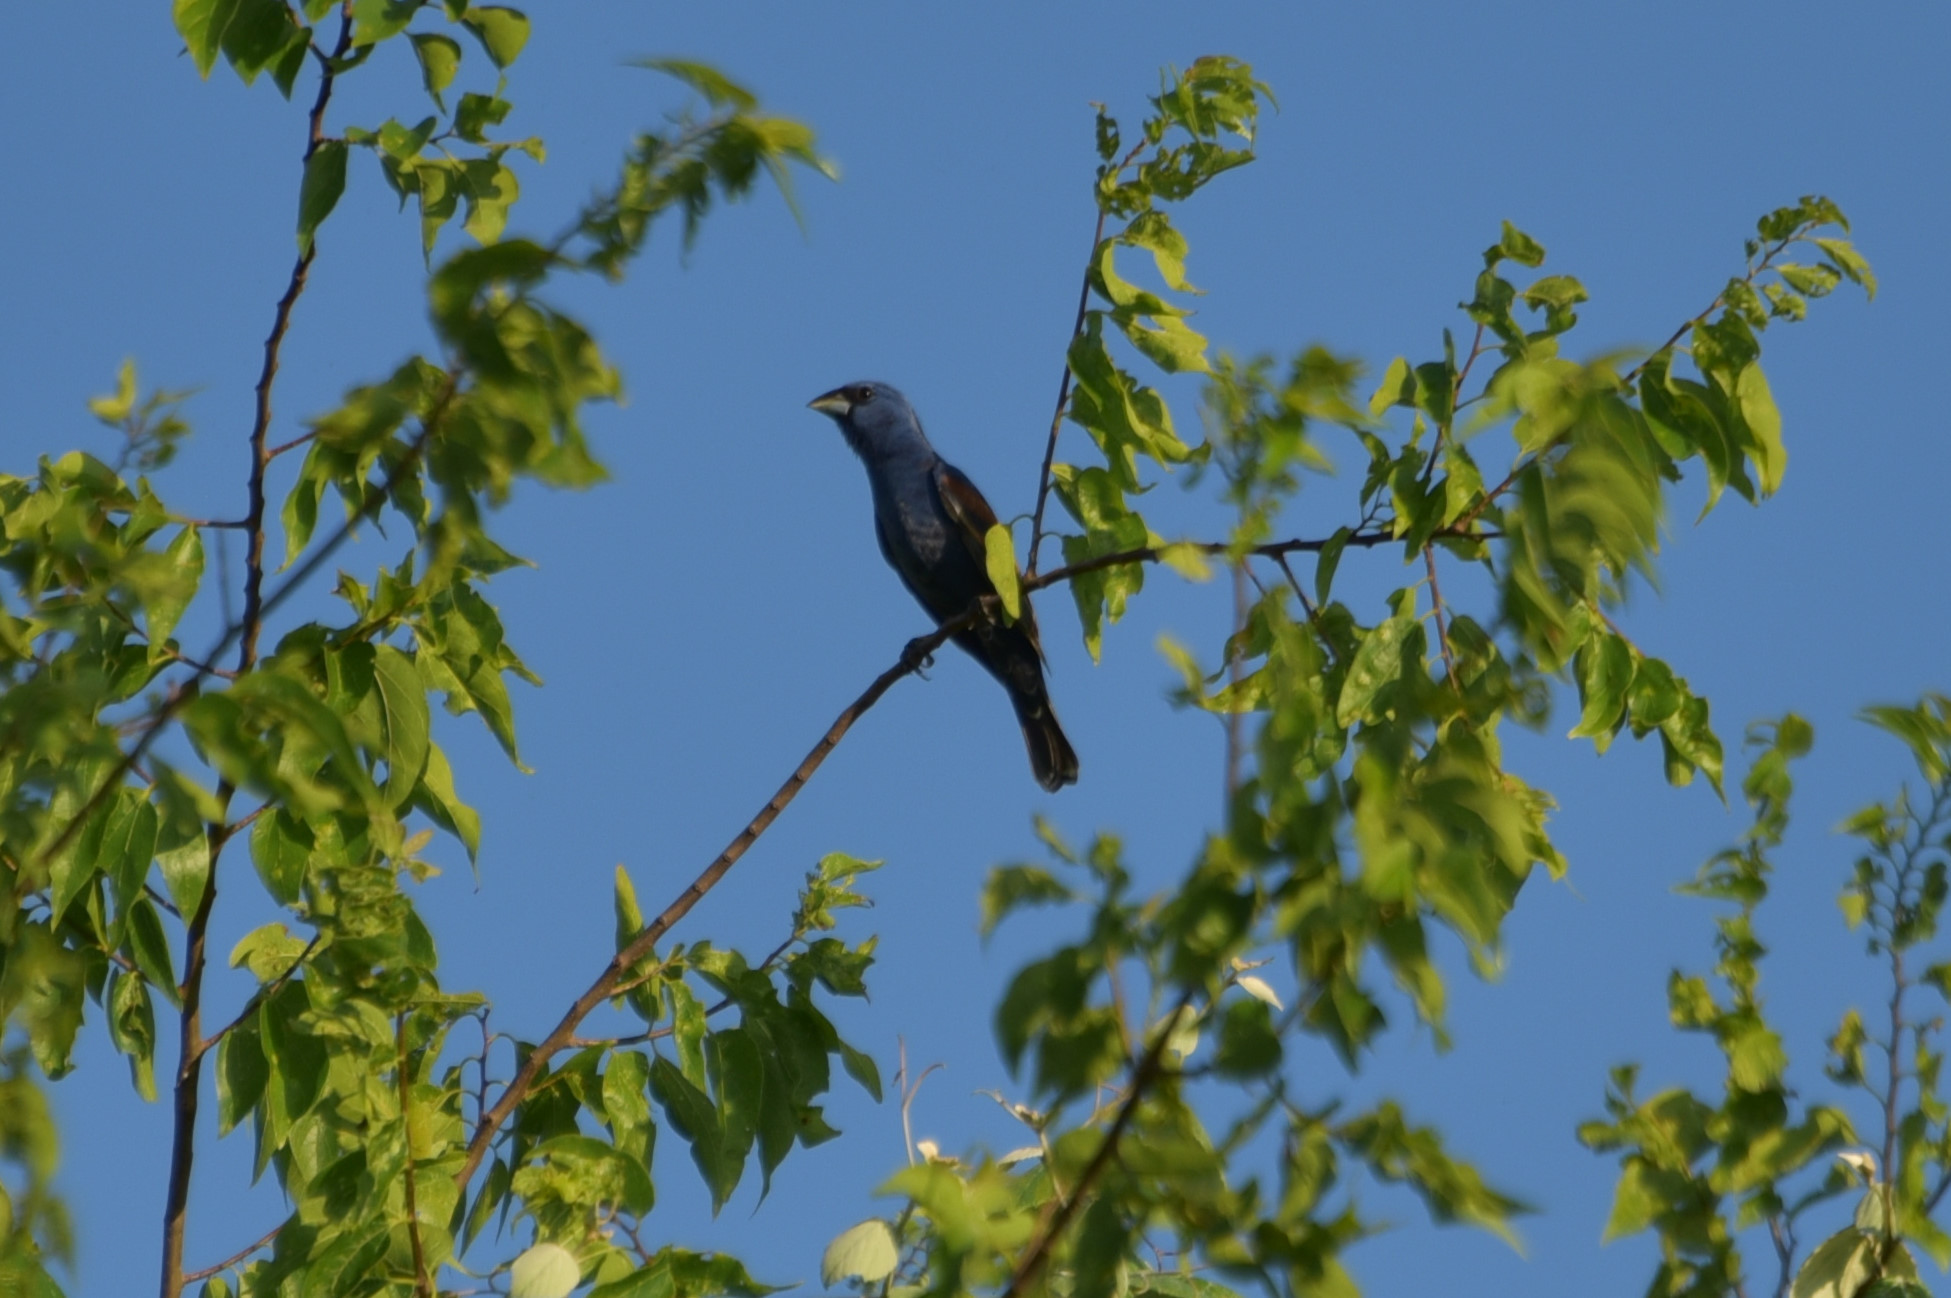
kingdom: Animalia
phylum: Chordata
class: Aves
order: Passeriformes
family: Cardinalidae
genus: Passerina
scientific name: Passerina caerulea
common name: Blue grosbeak
